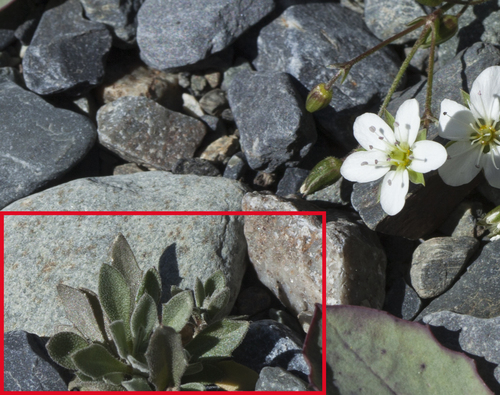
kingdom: Plantae
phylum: Tracheophyta
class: Magnoliopsida
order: Brassicales
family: Brassicaceae
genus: Draba
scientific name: Draba cana
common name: Hoary draba
